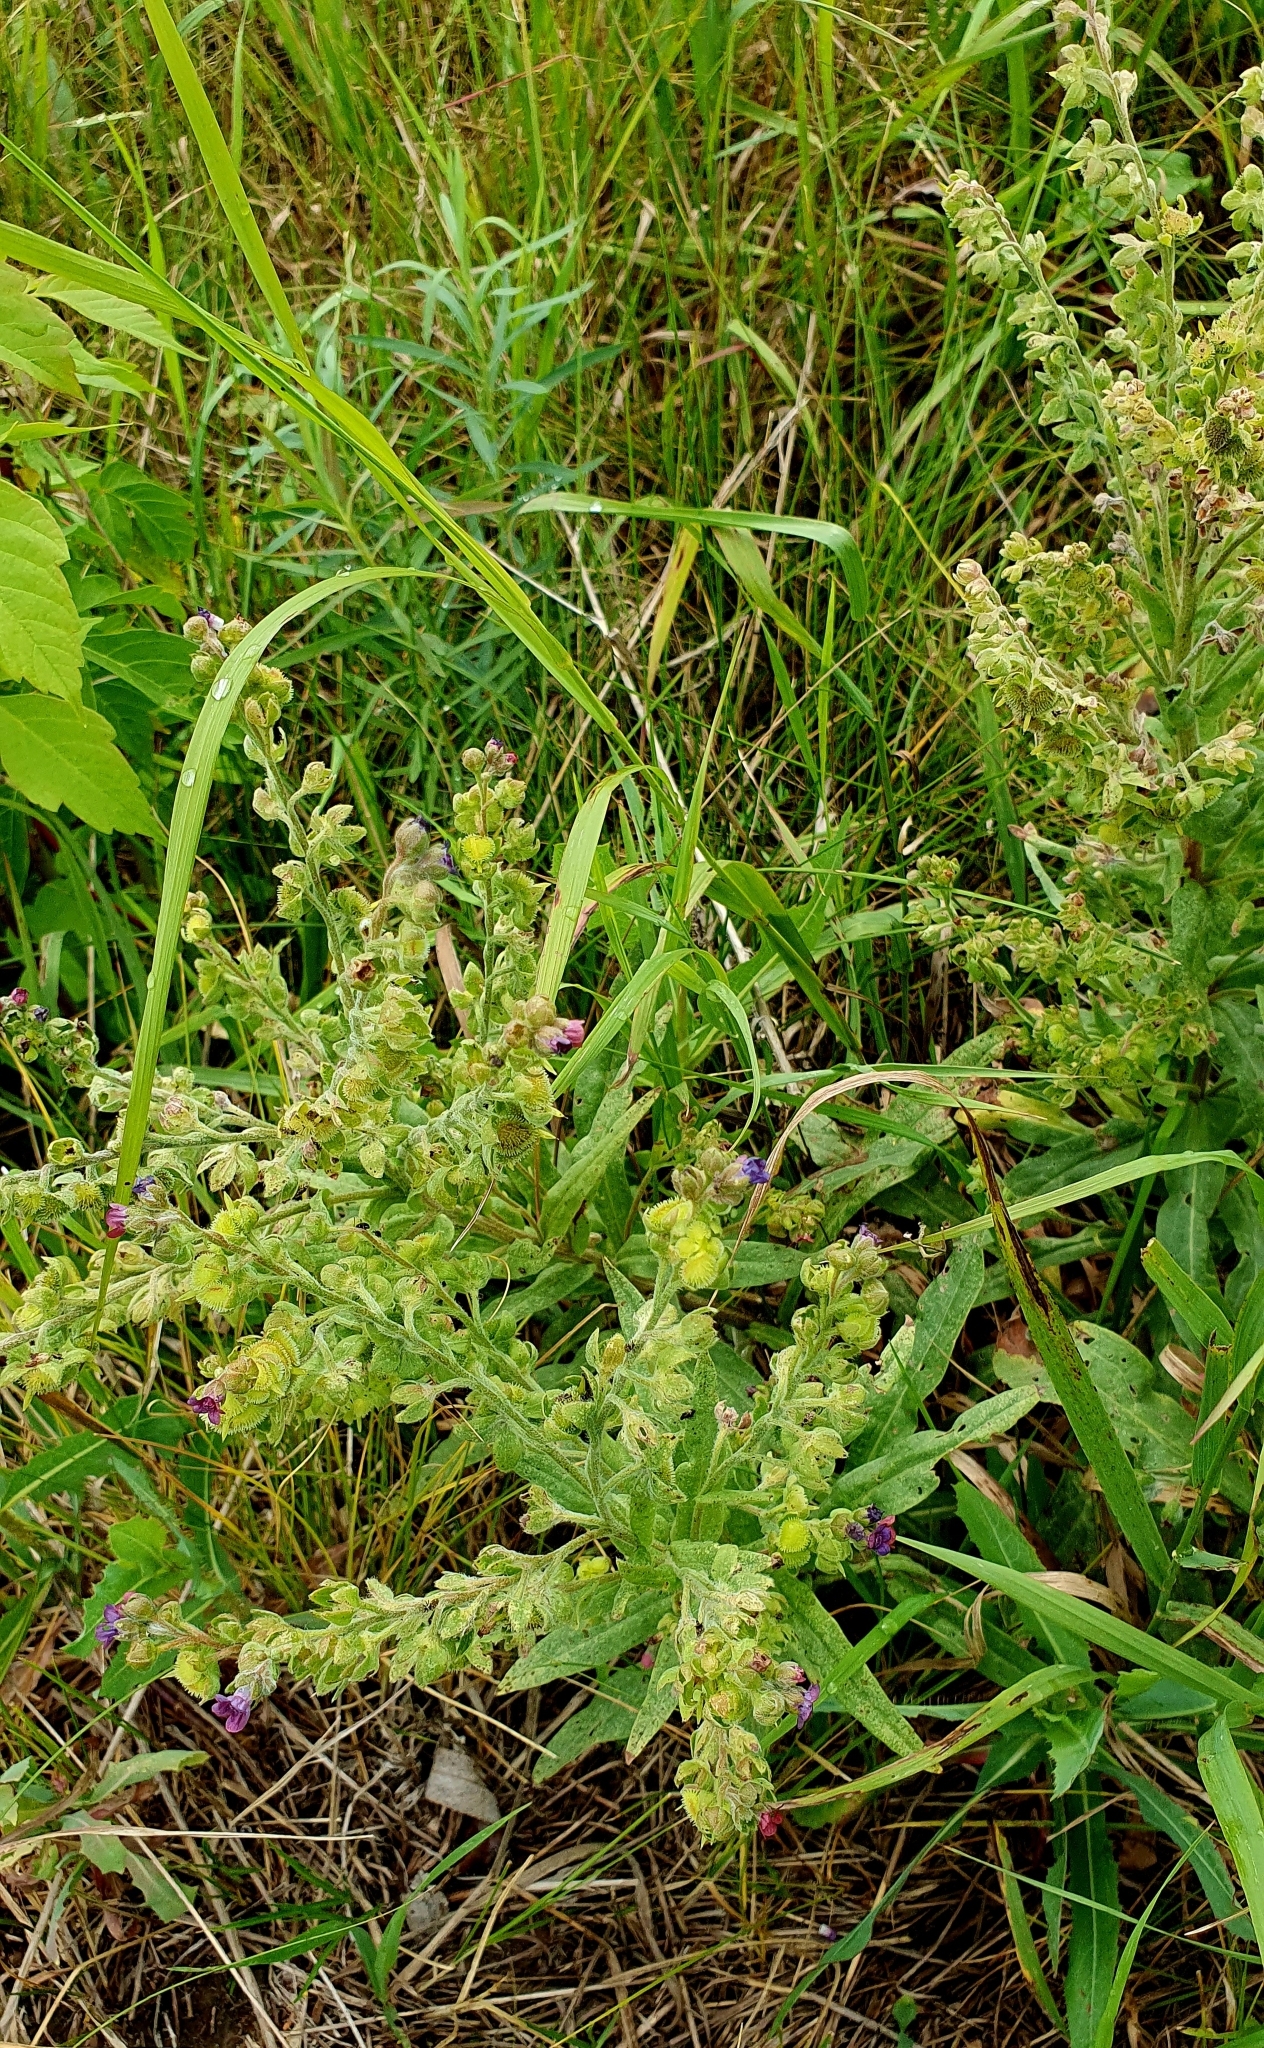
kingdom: Plantae
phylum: Tracheophyta
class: Magnoliopsida
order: Boraginales
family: Boraginaceae
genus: Cynoglossum
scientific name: Cynoglossum officinale
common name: Hound's-tongue
